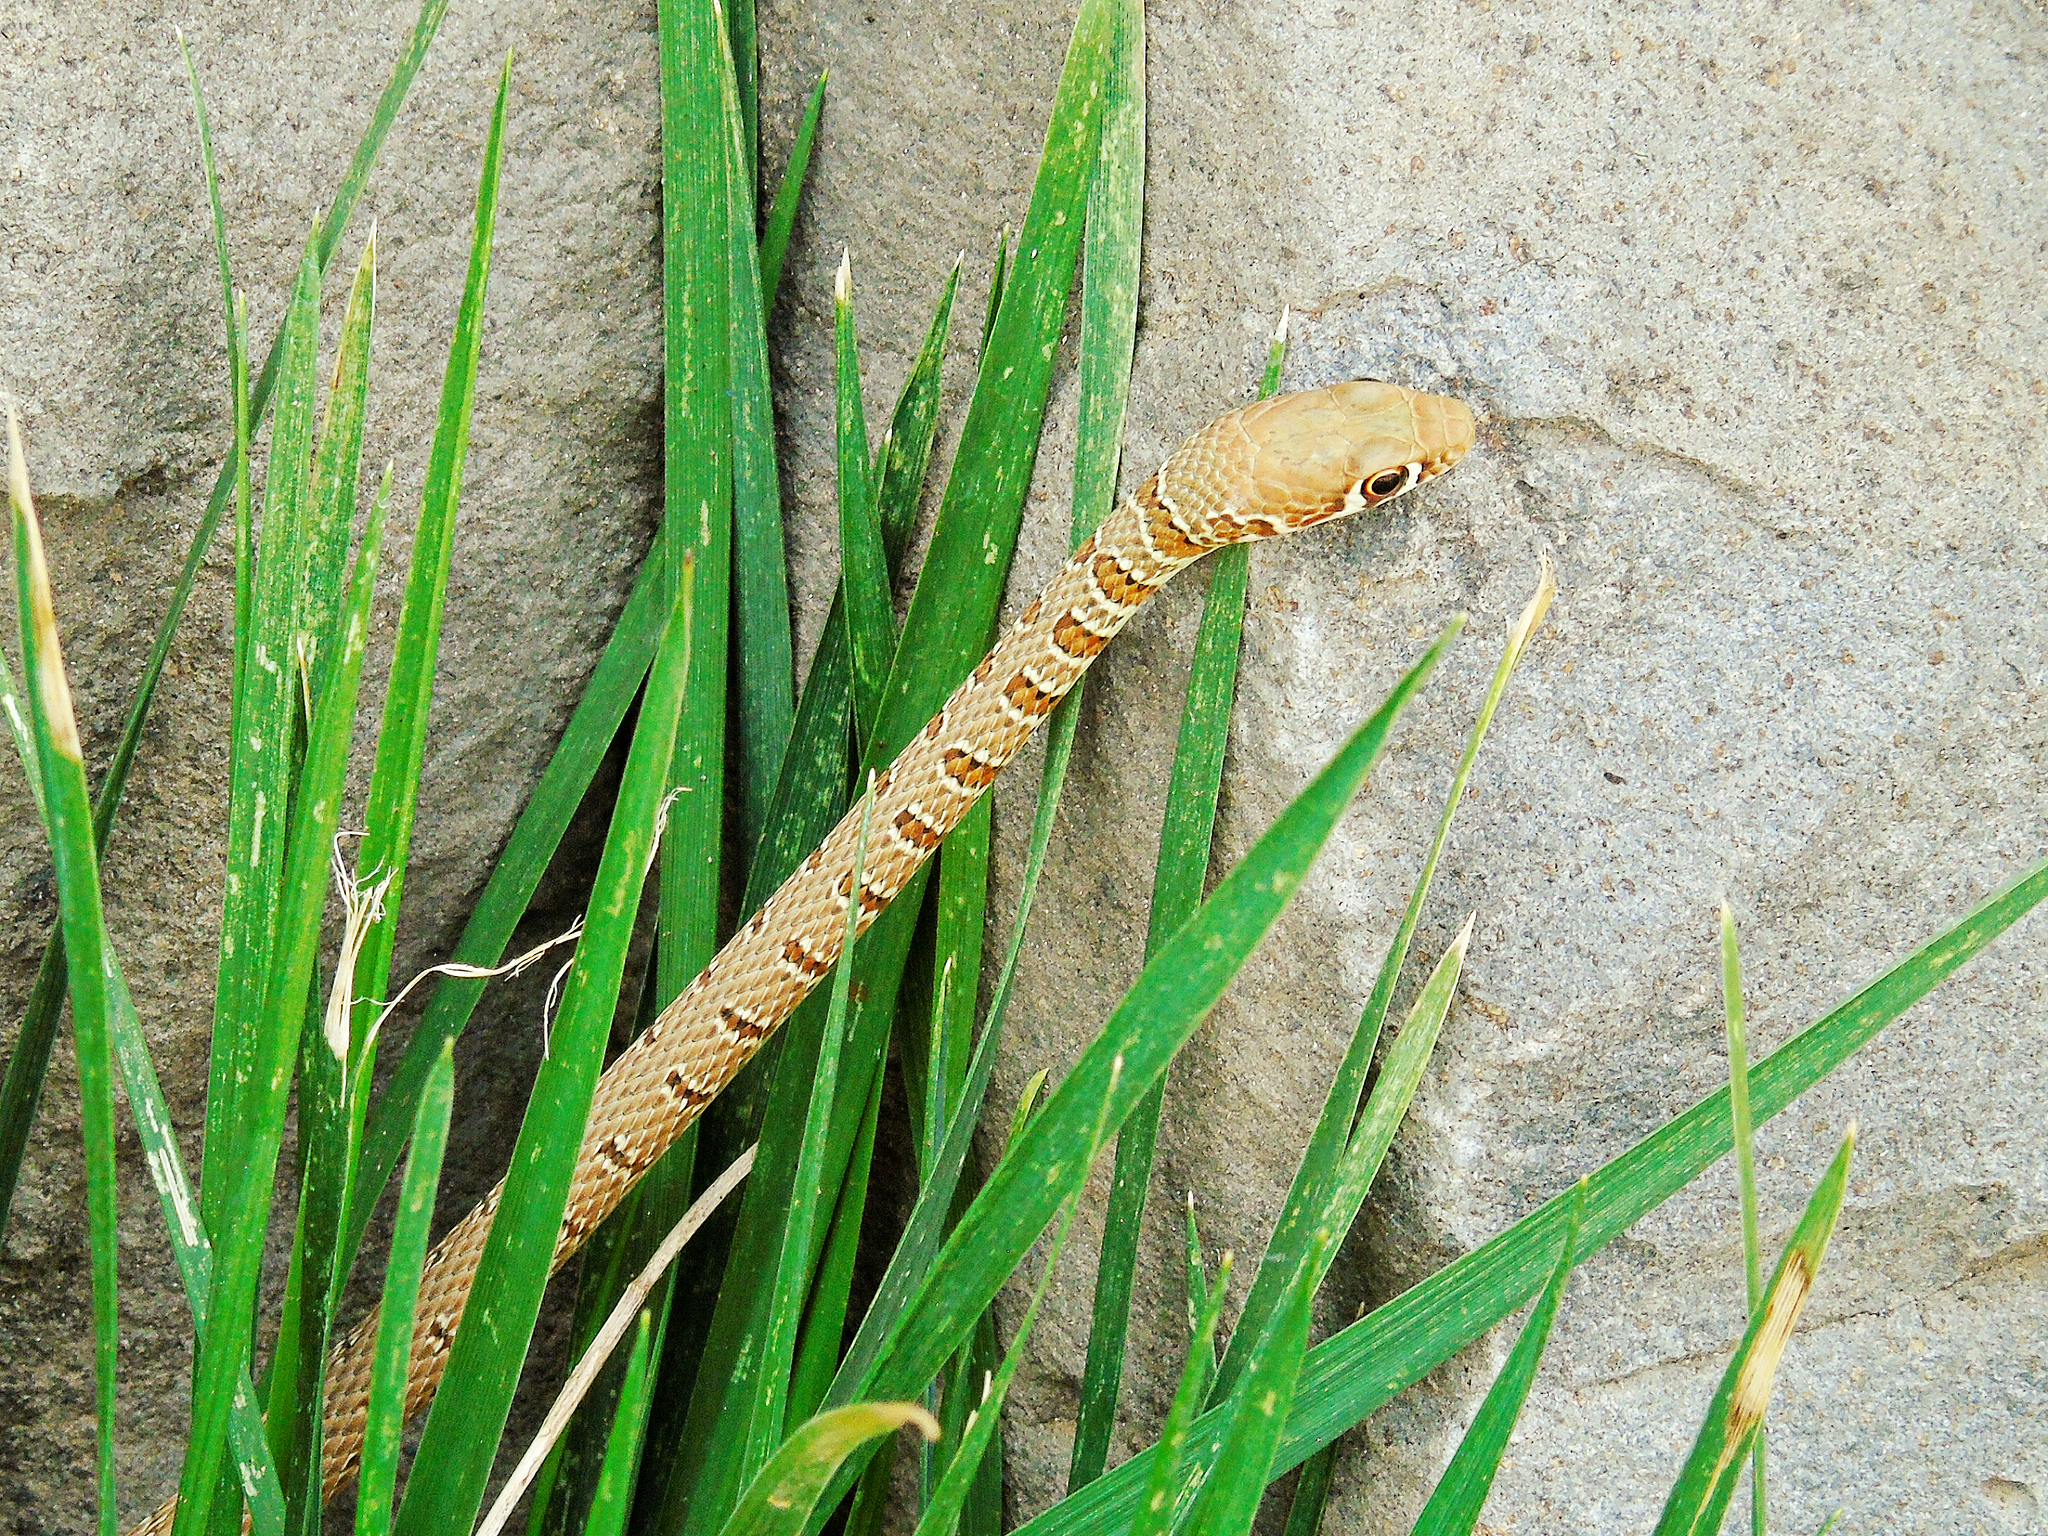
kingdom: Animalia
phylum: Chordata
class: Squamata
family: Colubridae
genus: Platyceps
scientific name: Platyceps najadum
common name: Dahl's whip snake
